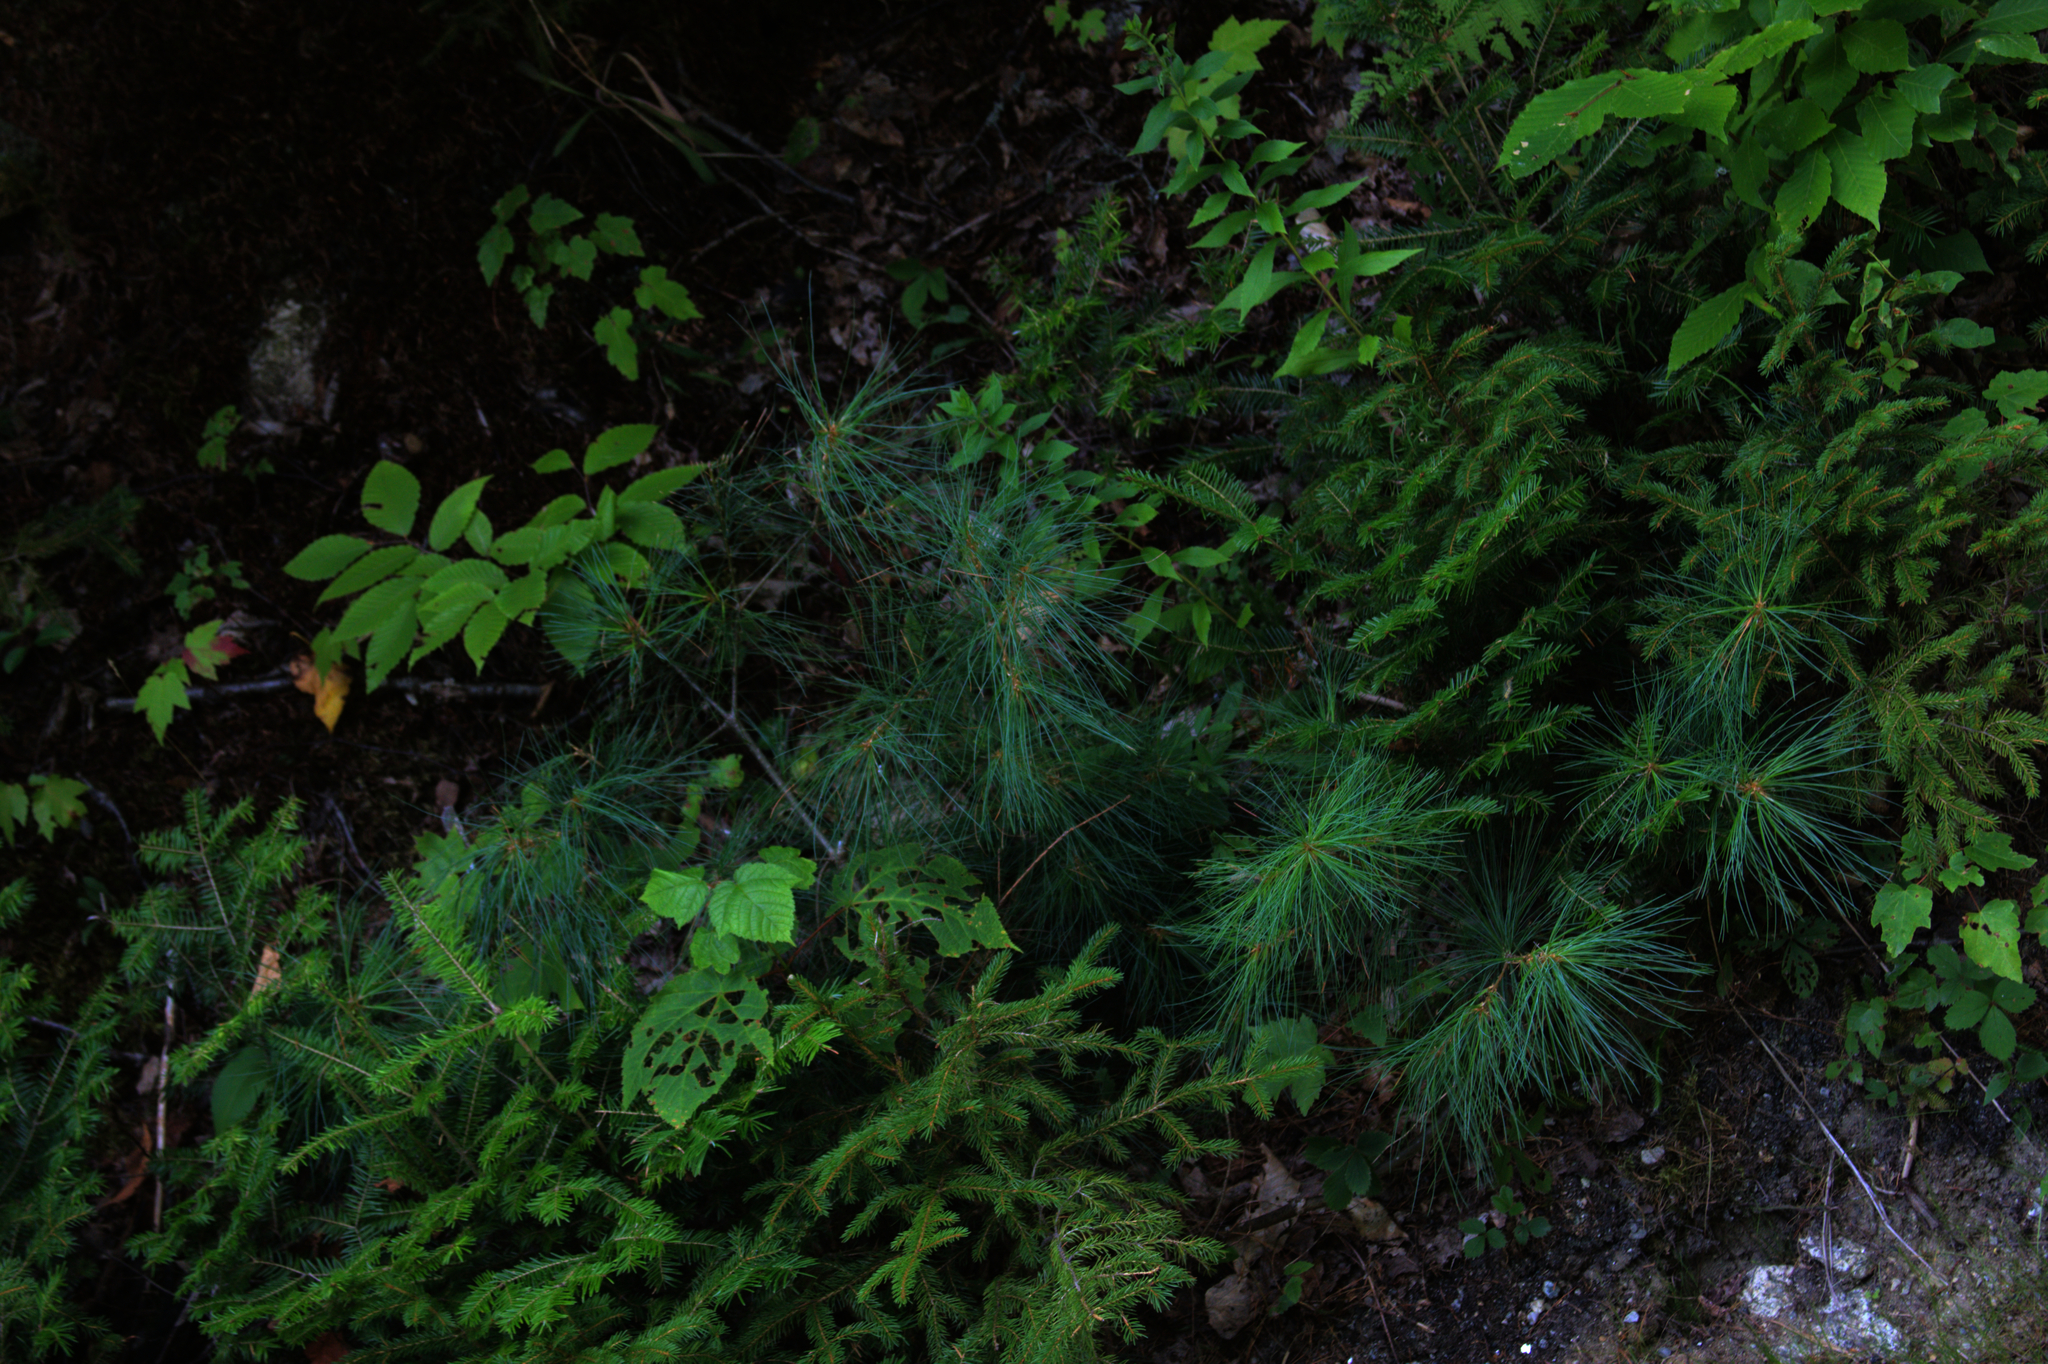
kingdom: Plantae
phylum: Tracheophyta
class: Pinopsida
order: Pinales
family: Pinaceae
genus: Pinus
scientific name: Pinus strobus
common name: Weymouth pine
